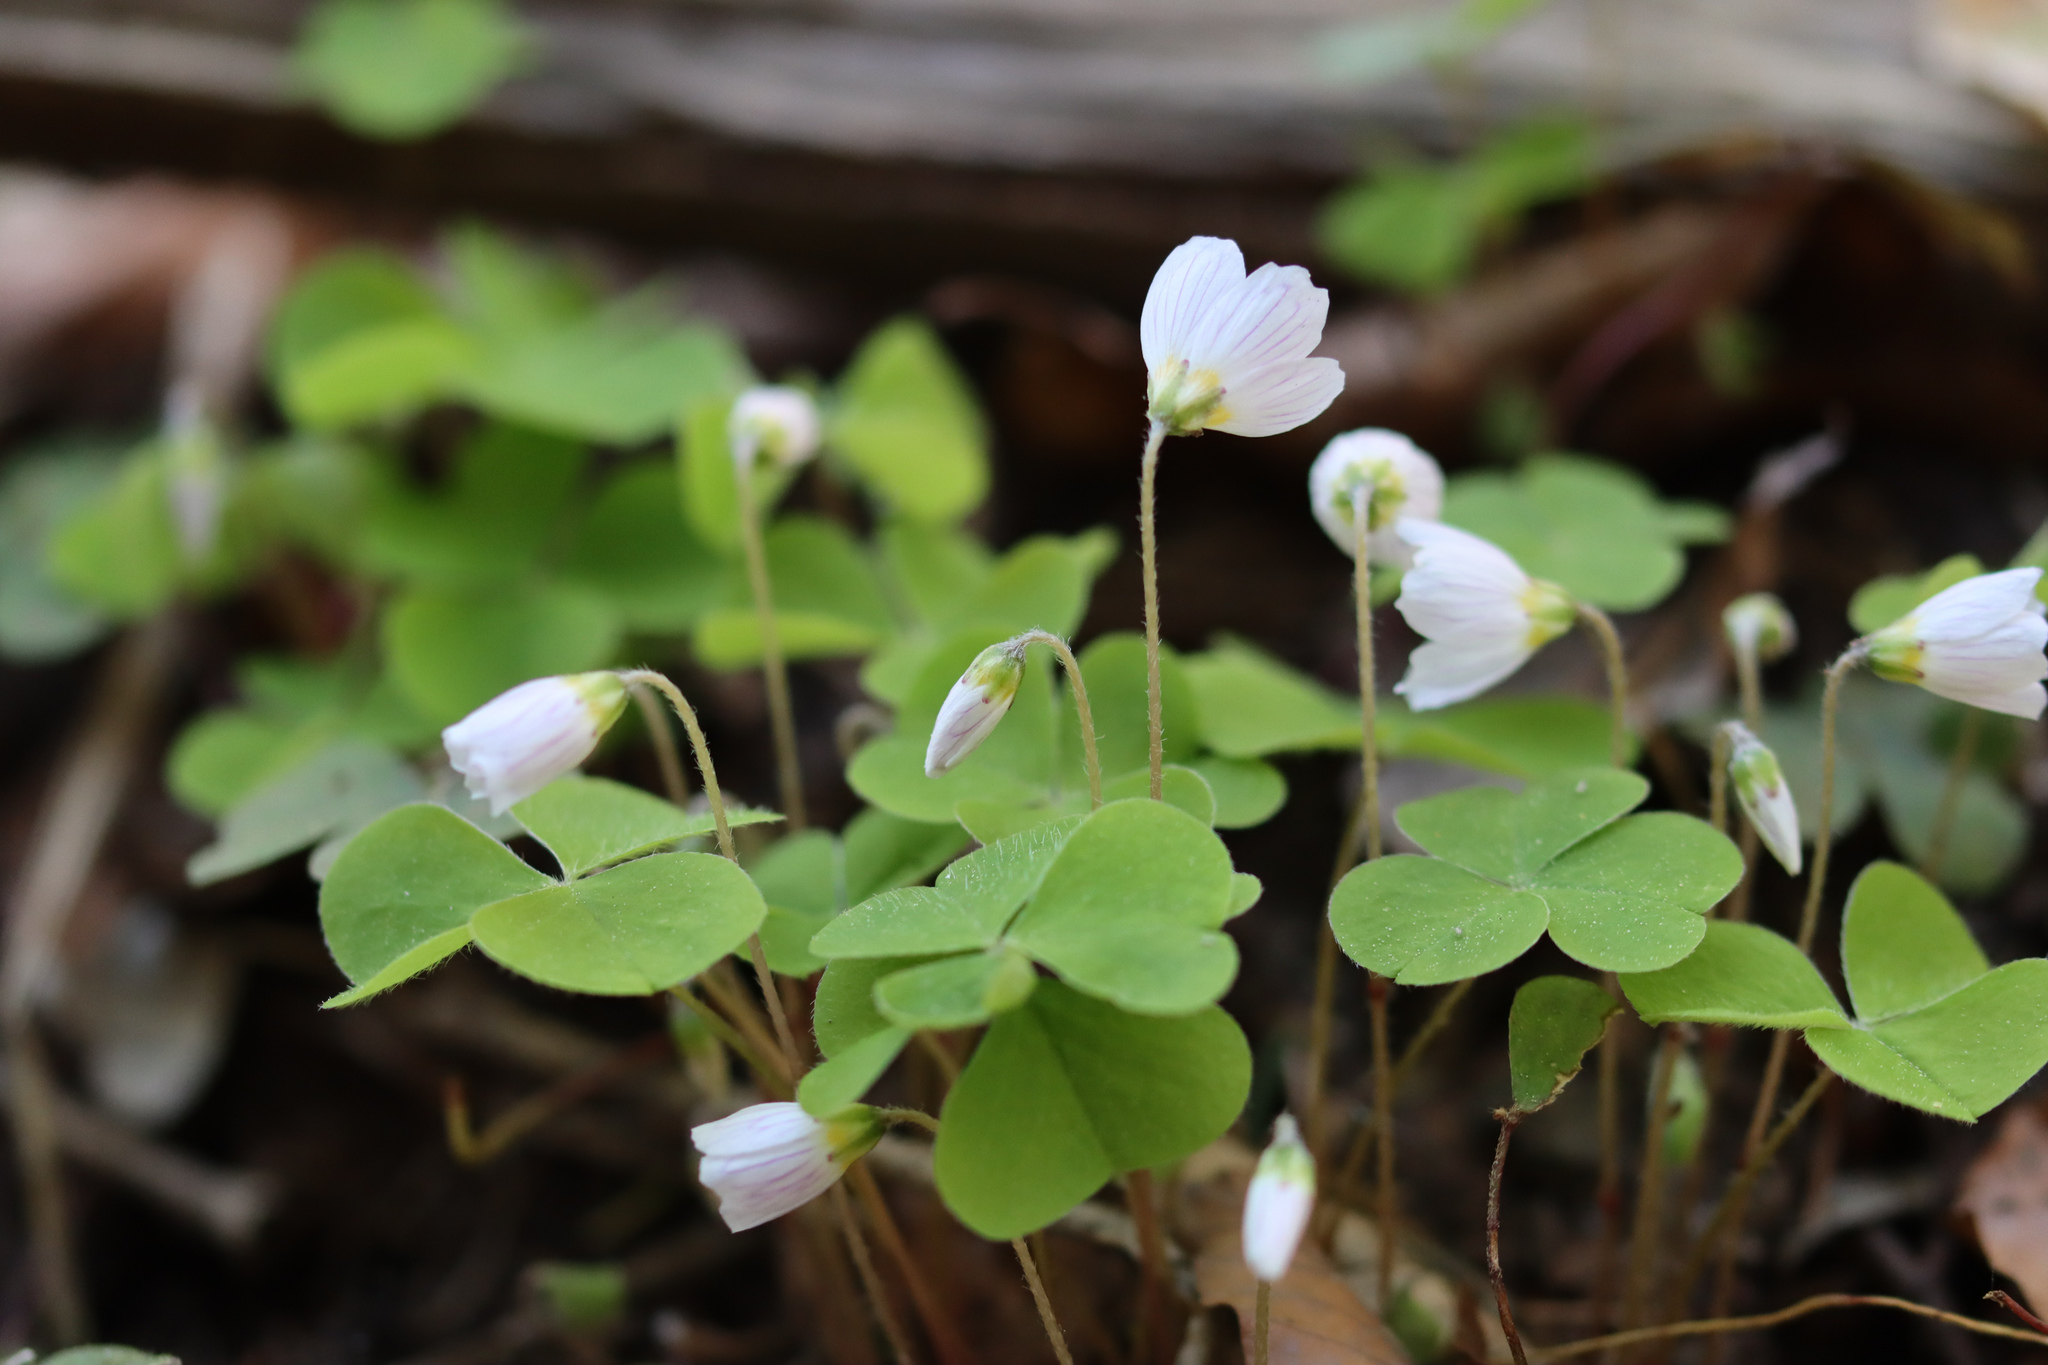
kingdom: Plantae
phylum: Tracheophyta
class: Magnoliopsida
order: Oxalidales
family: Oxalidaceae
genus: Oxalis
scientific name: Oxalis acetosella
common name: Wood-sorrel
